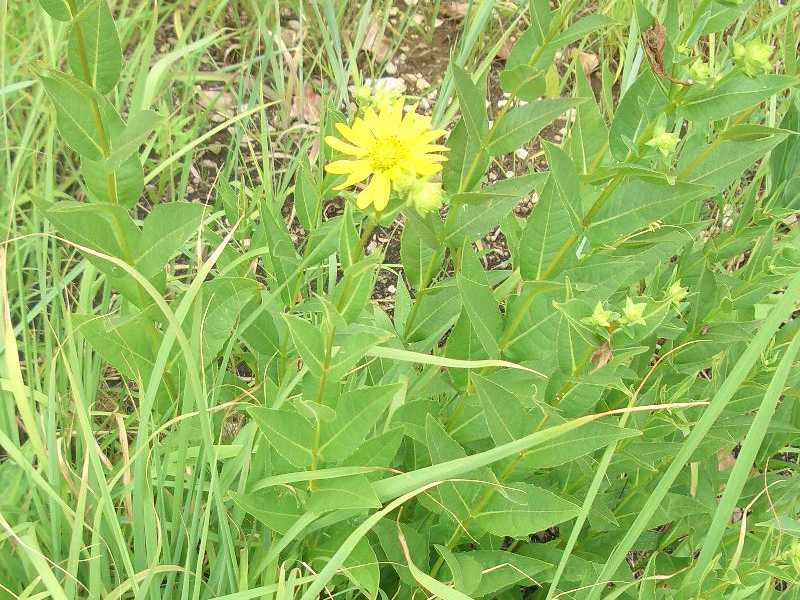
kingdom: Plantae
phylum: Tracheophyta
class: Magnoliopsida
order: Asterales
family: Asteraceae
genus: Silphium
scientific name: Silphium integrifolium
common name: Whole-leaf rosinweed
